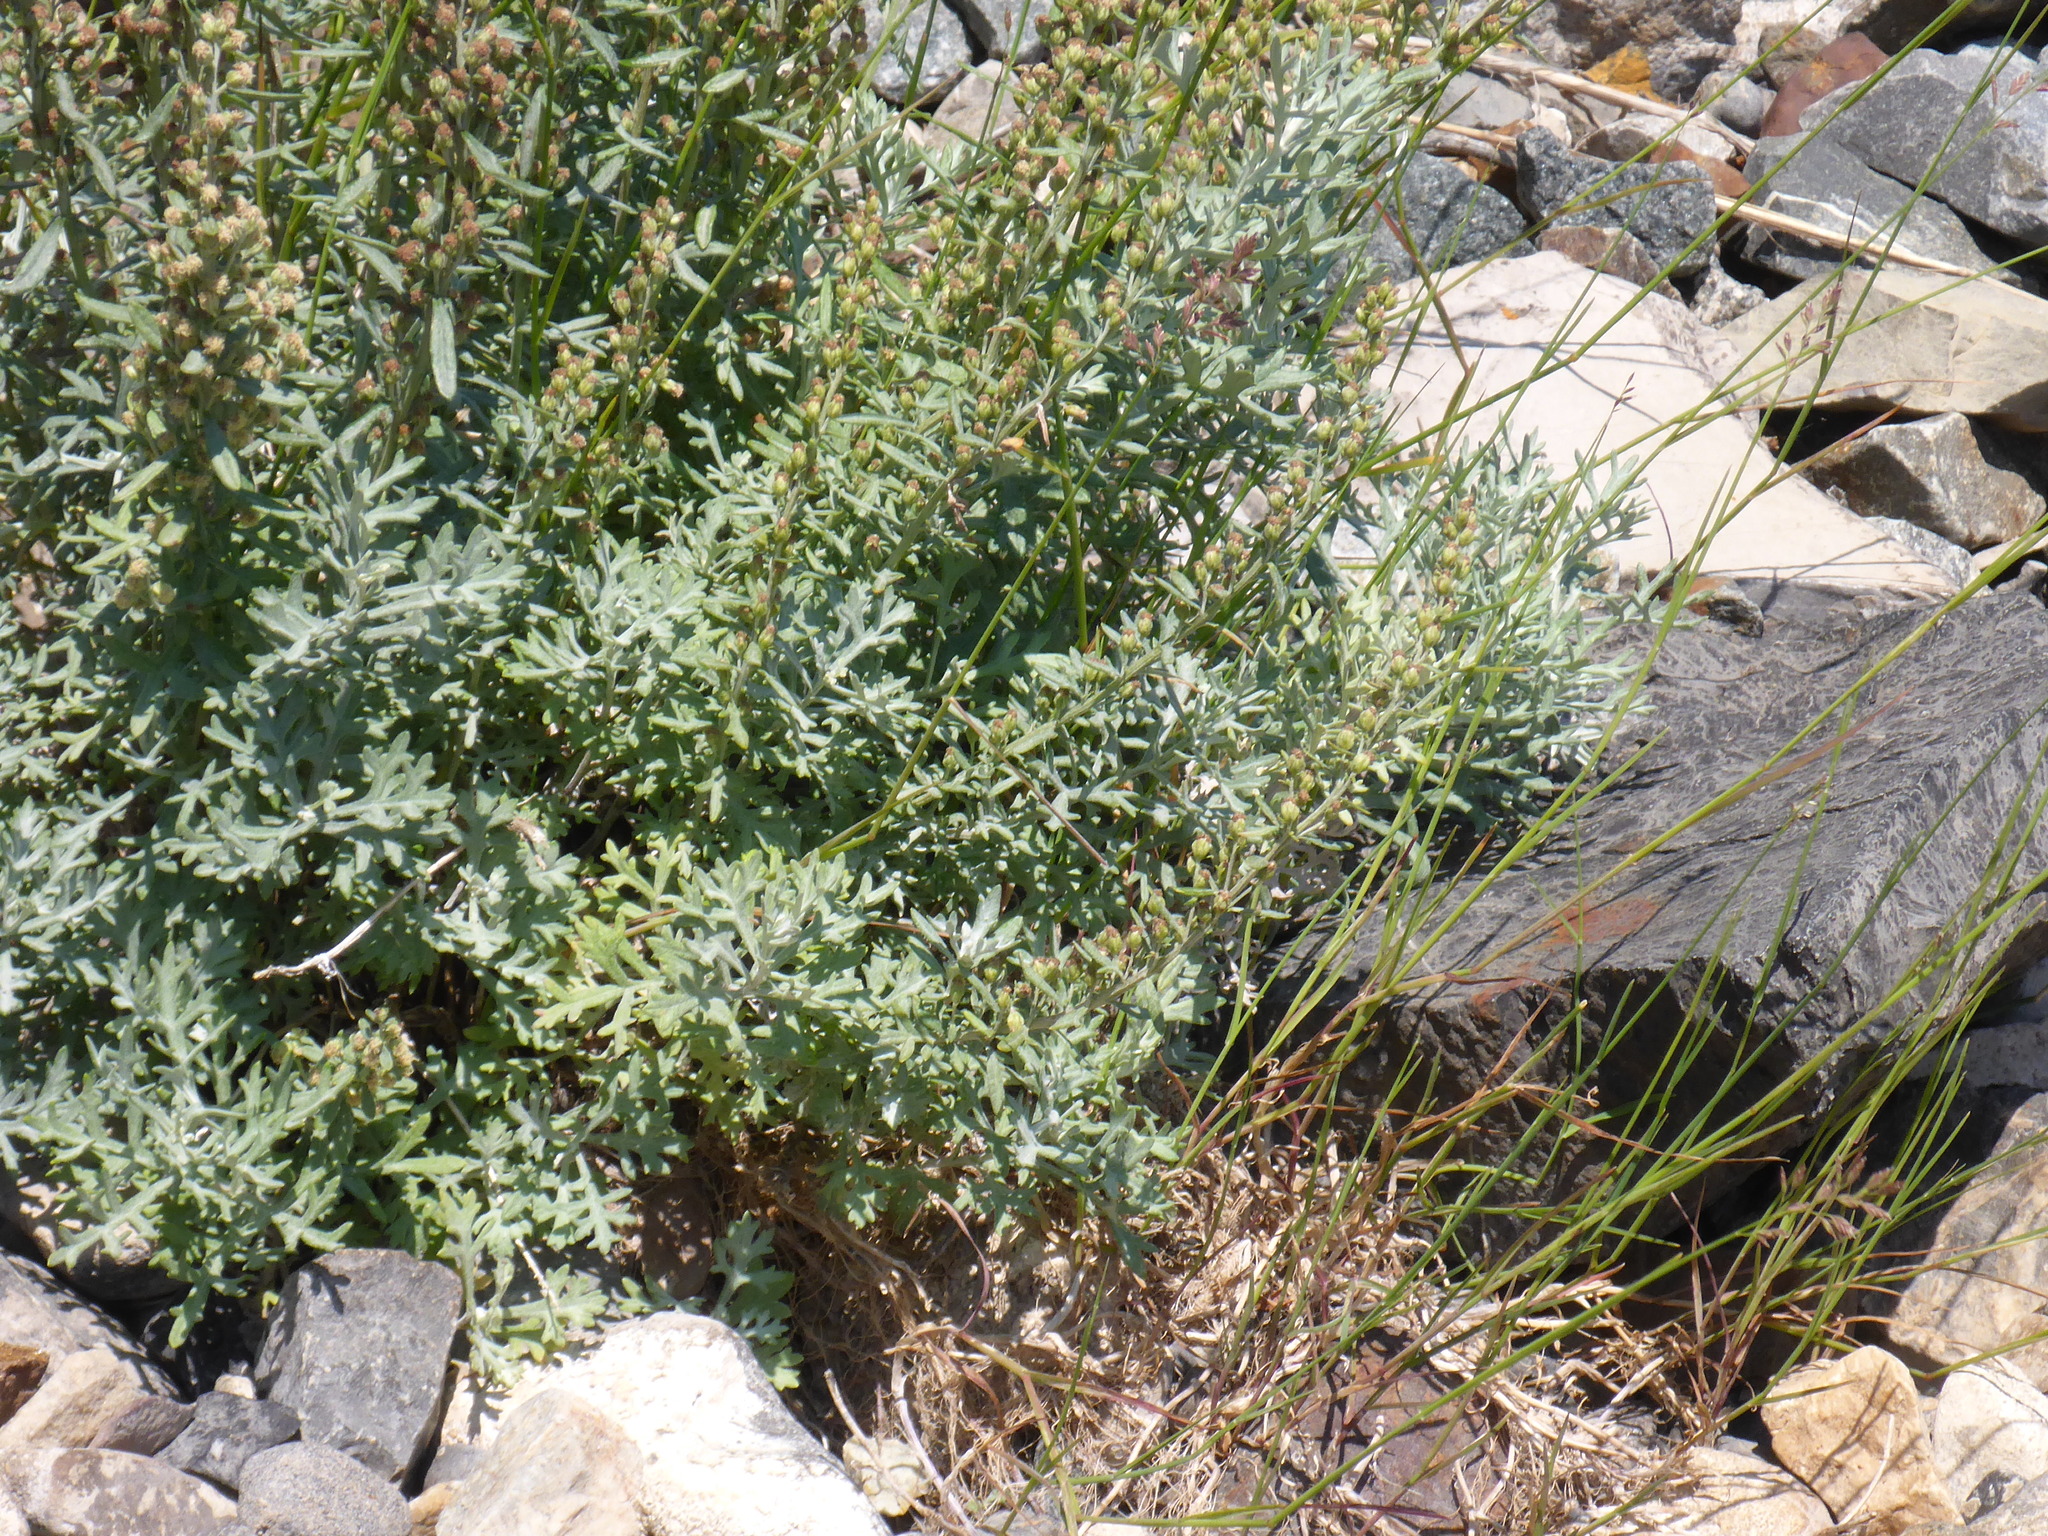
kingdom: Plantae
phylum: Tracheophyta
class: Magnoliopsida
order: Asterales
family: Asteraceae
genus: Artemisia
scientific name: Artemisia michauxiana
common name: Lemon sagewort
